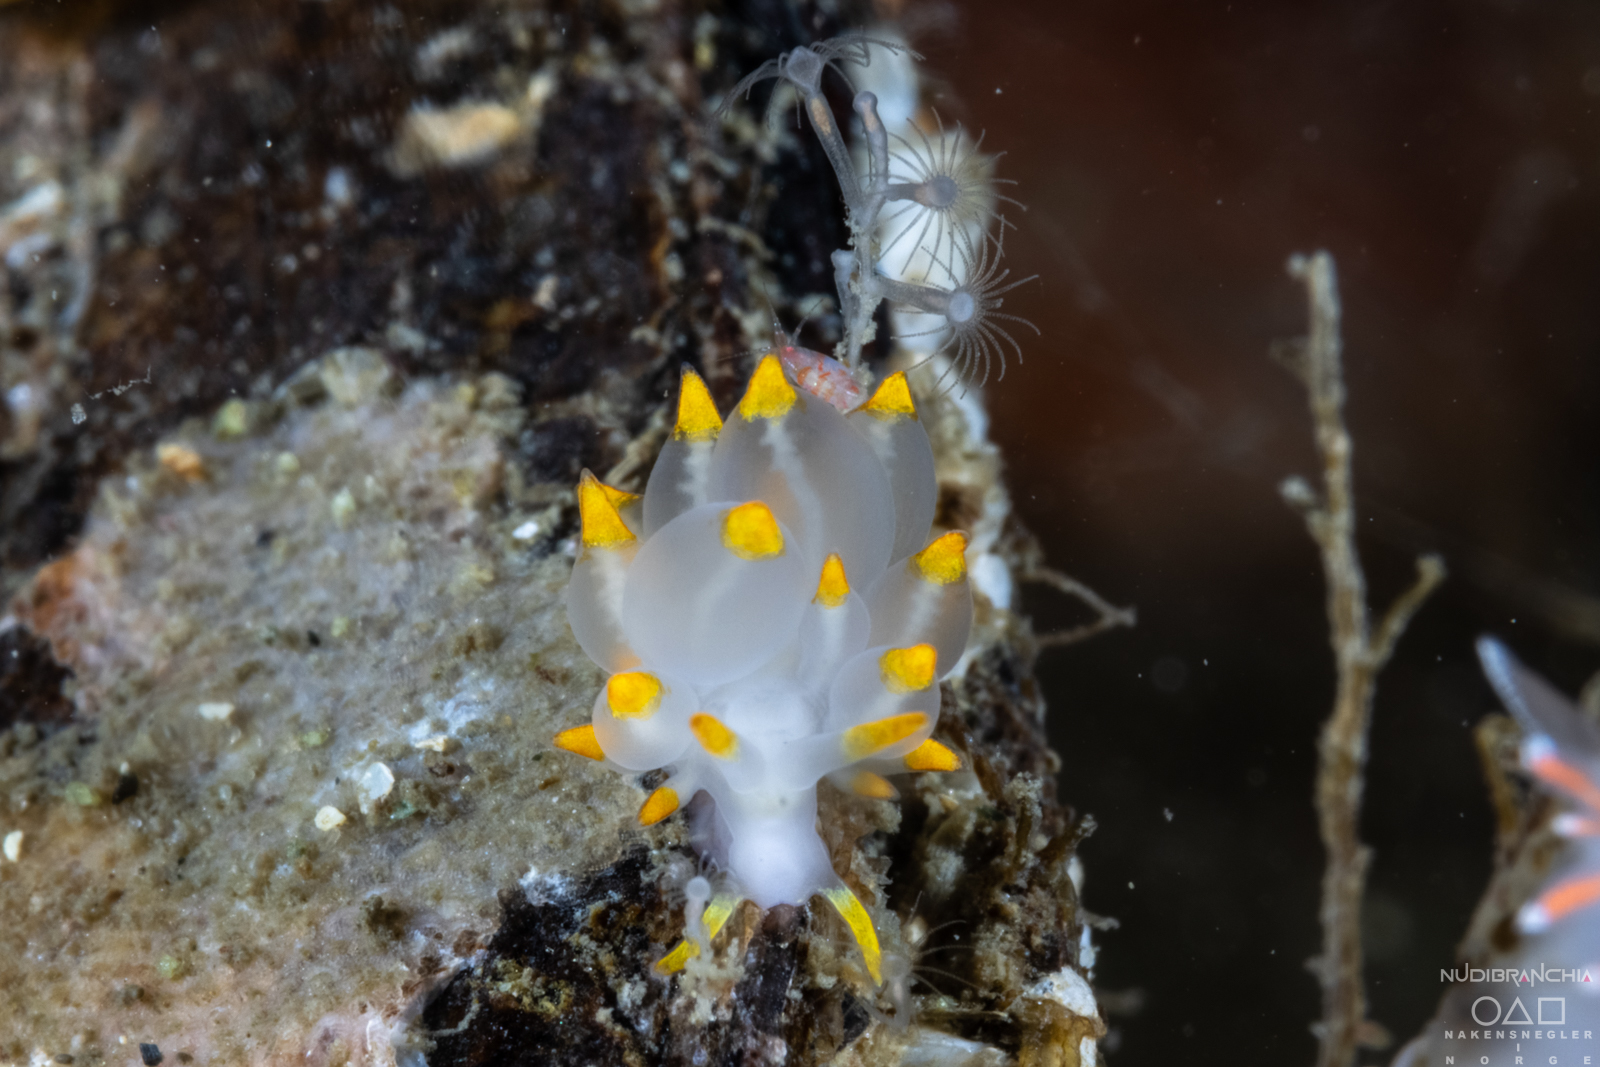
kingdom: Animalia
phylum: Mollusca
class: Gastropoda
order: Nudibranchia
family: Eubranchidae
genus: Amphorina
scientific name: Amphorina farrani
